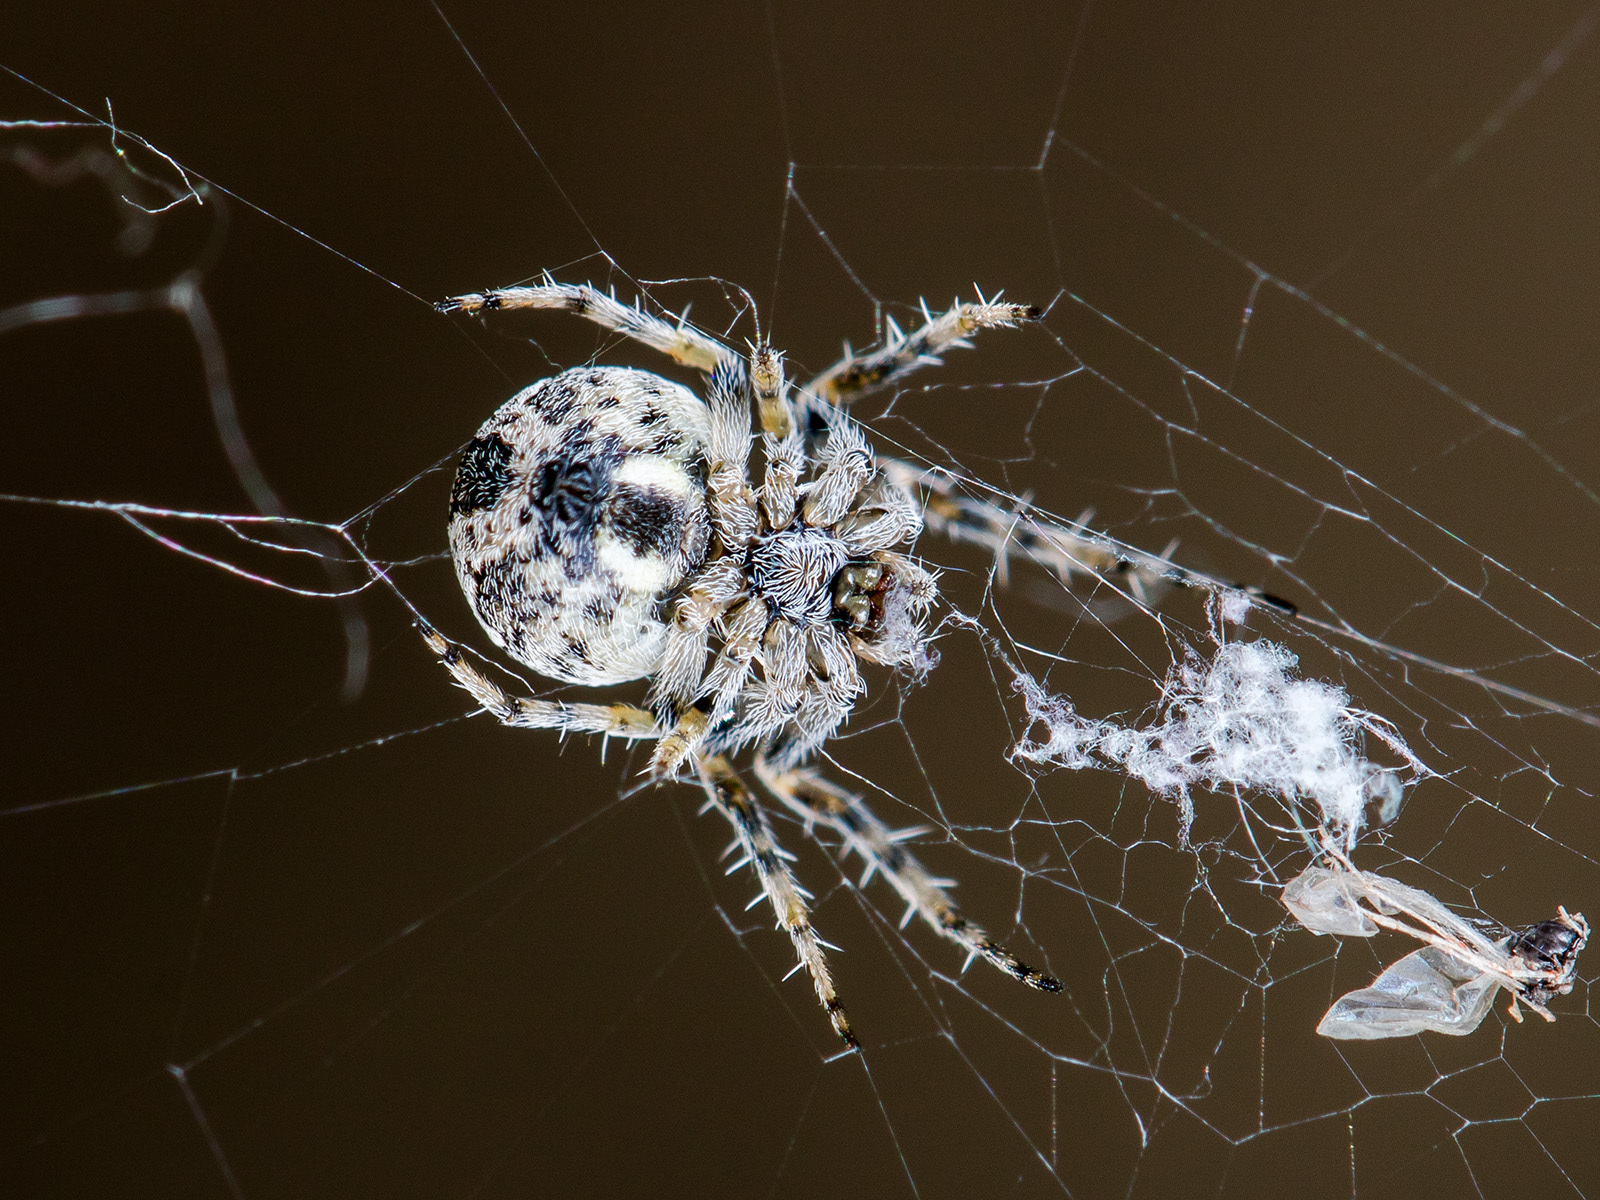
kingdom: Animalia
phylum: Arthropoda
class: Arachnida
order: Araneae
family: Araneidae
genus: Araneus
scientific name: Araneus strandiellus
